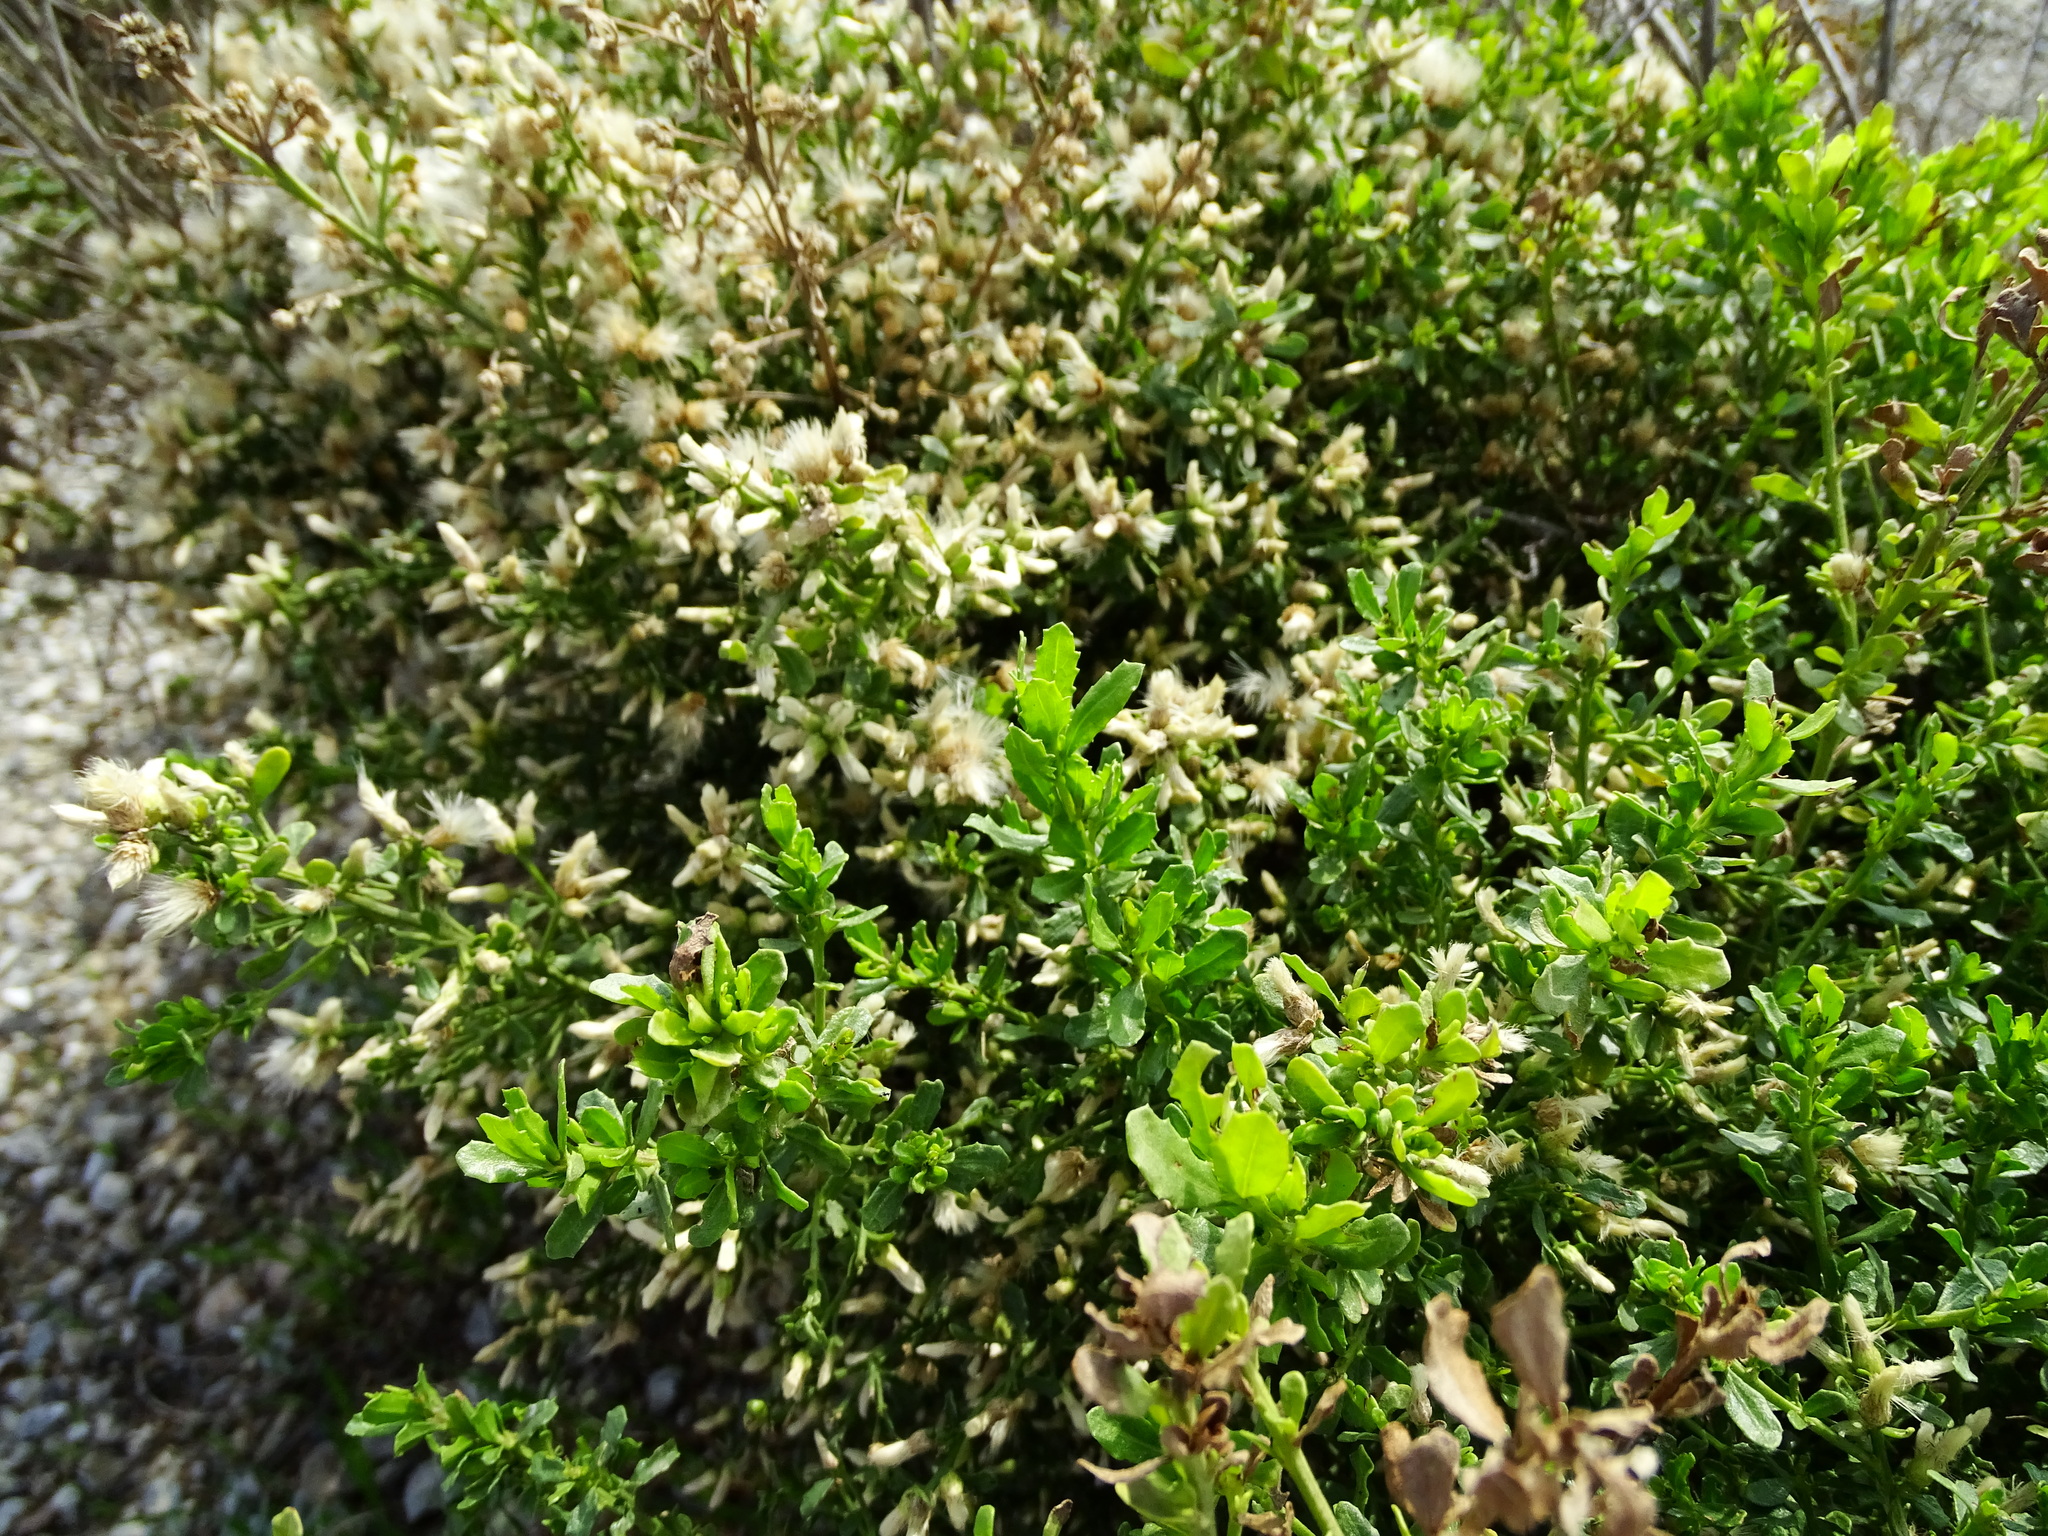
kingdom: Plantae
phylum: Tracheophyta
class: Magnoliopsida
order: Asterales
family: Asteraceae
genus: Baccharis
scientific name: Baccharis pilularis
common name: Coyotebrush
